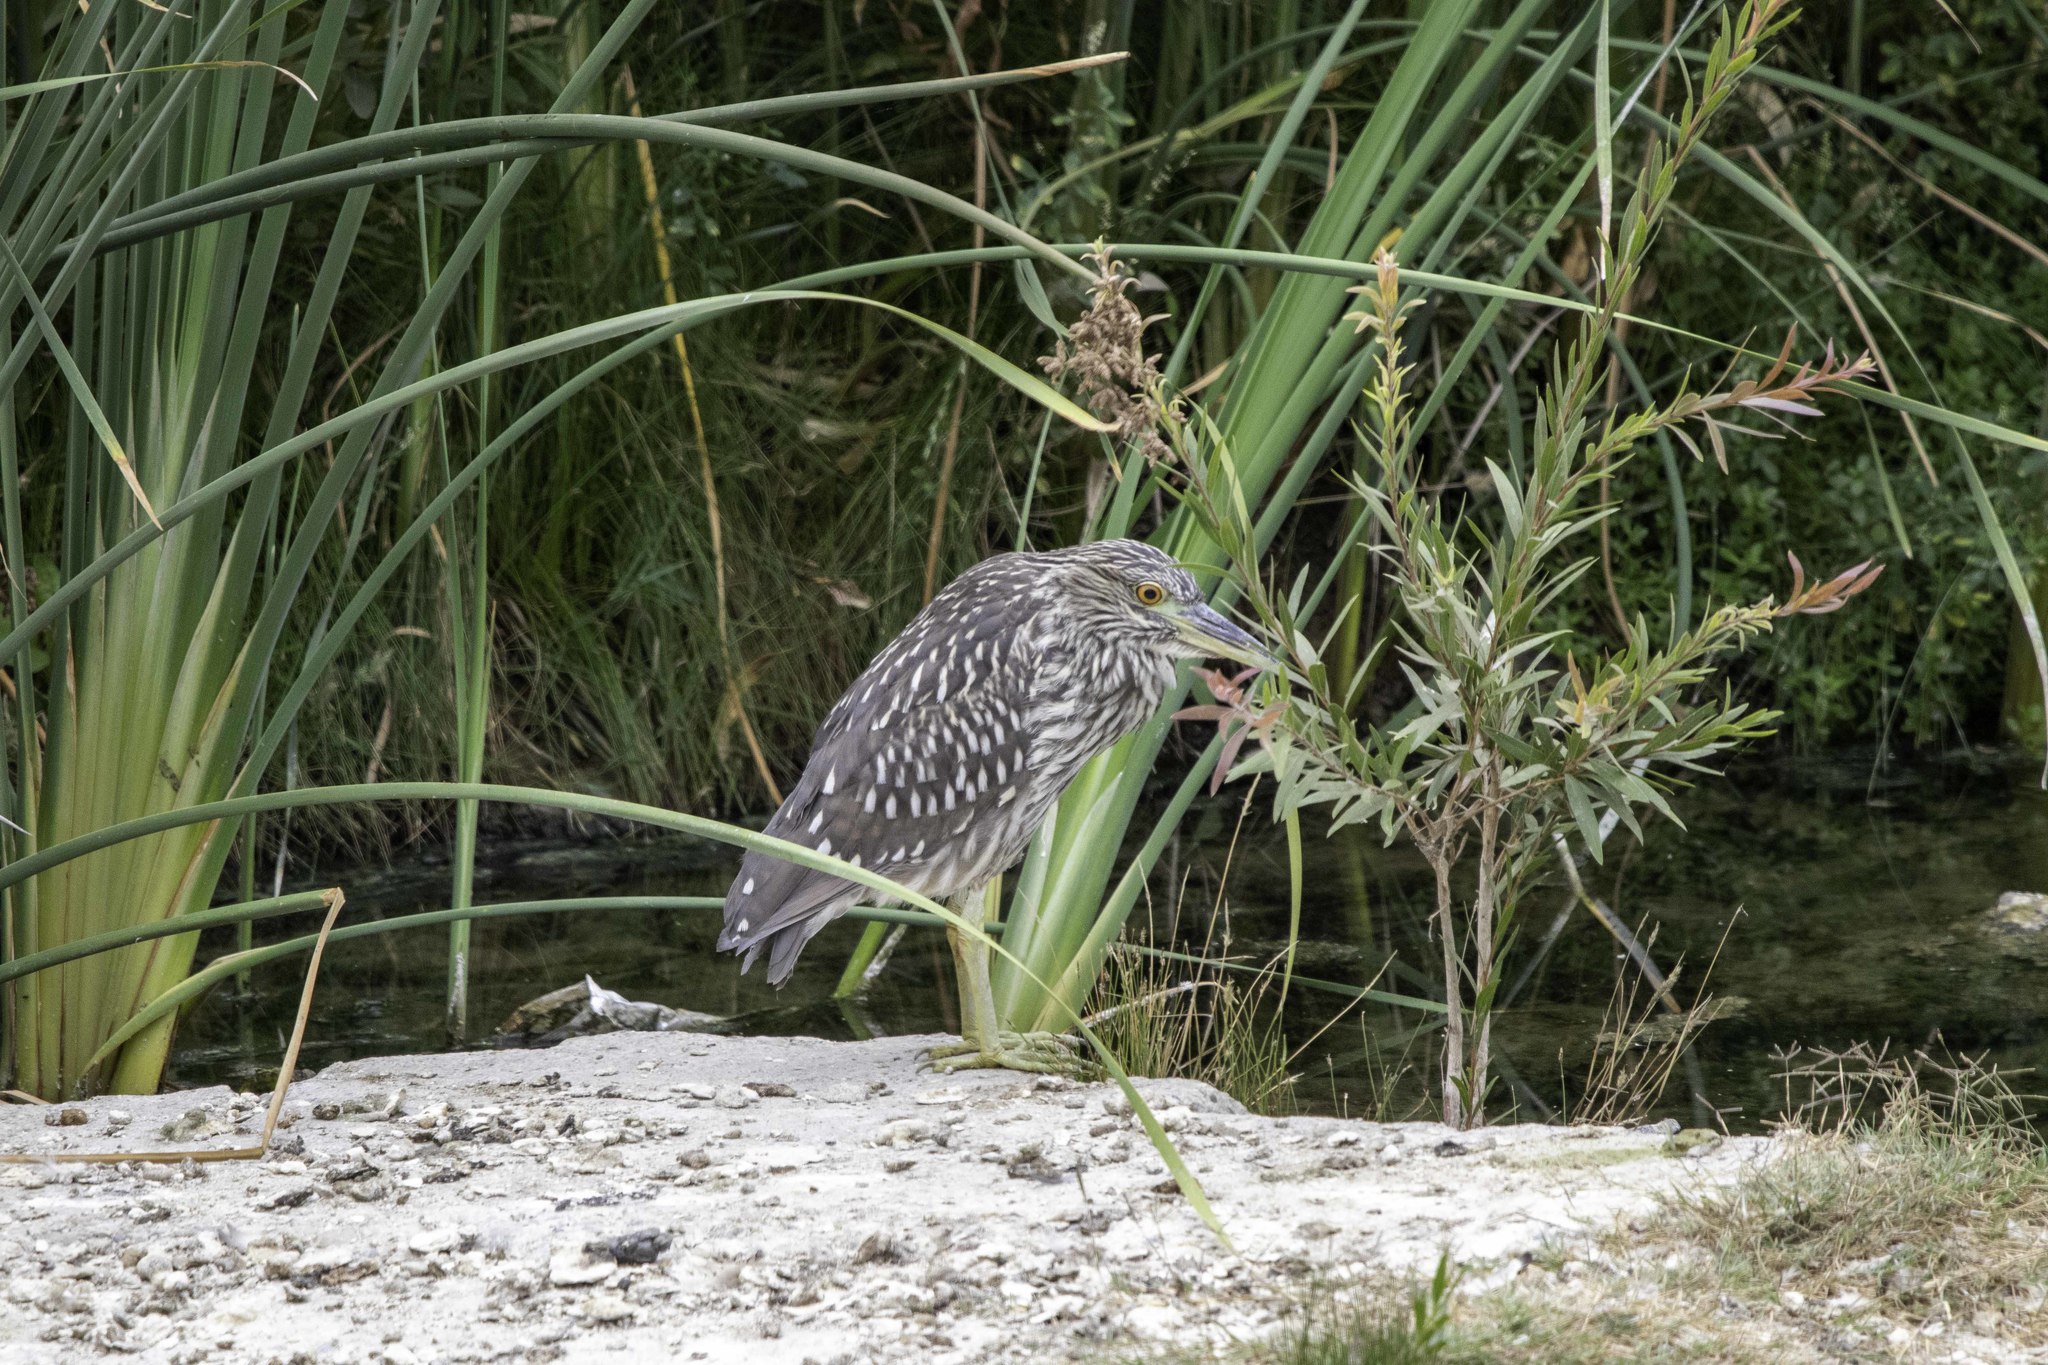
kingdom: Animalia
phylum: Chordata
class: Aves
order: Pelecaniformes
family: Ardeidae
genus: Nycticorax
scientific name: Nycticorax nycticorax
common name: Black-crowned night heron
